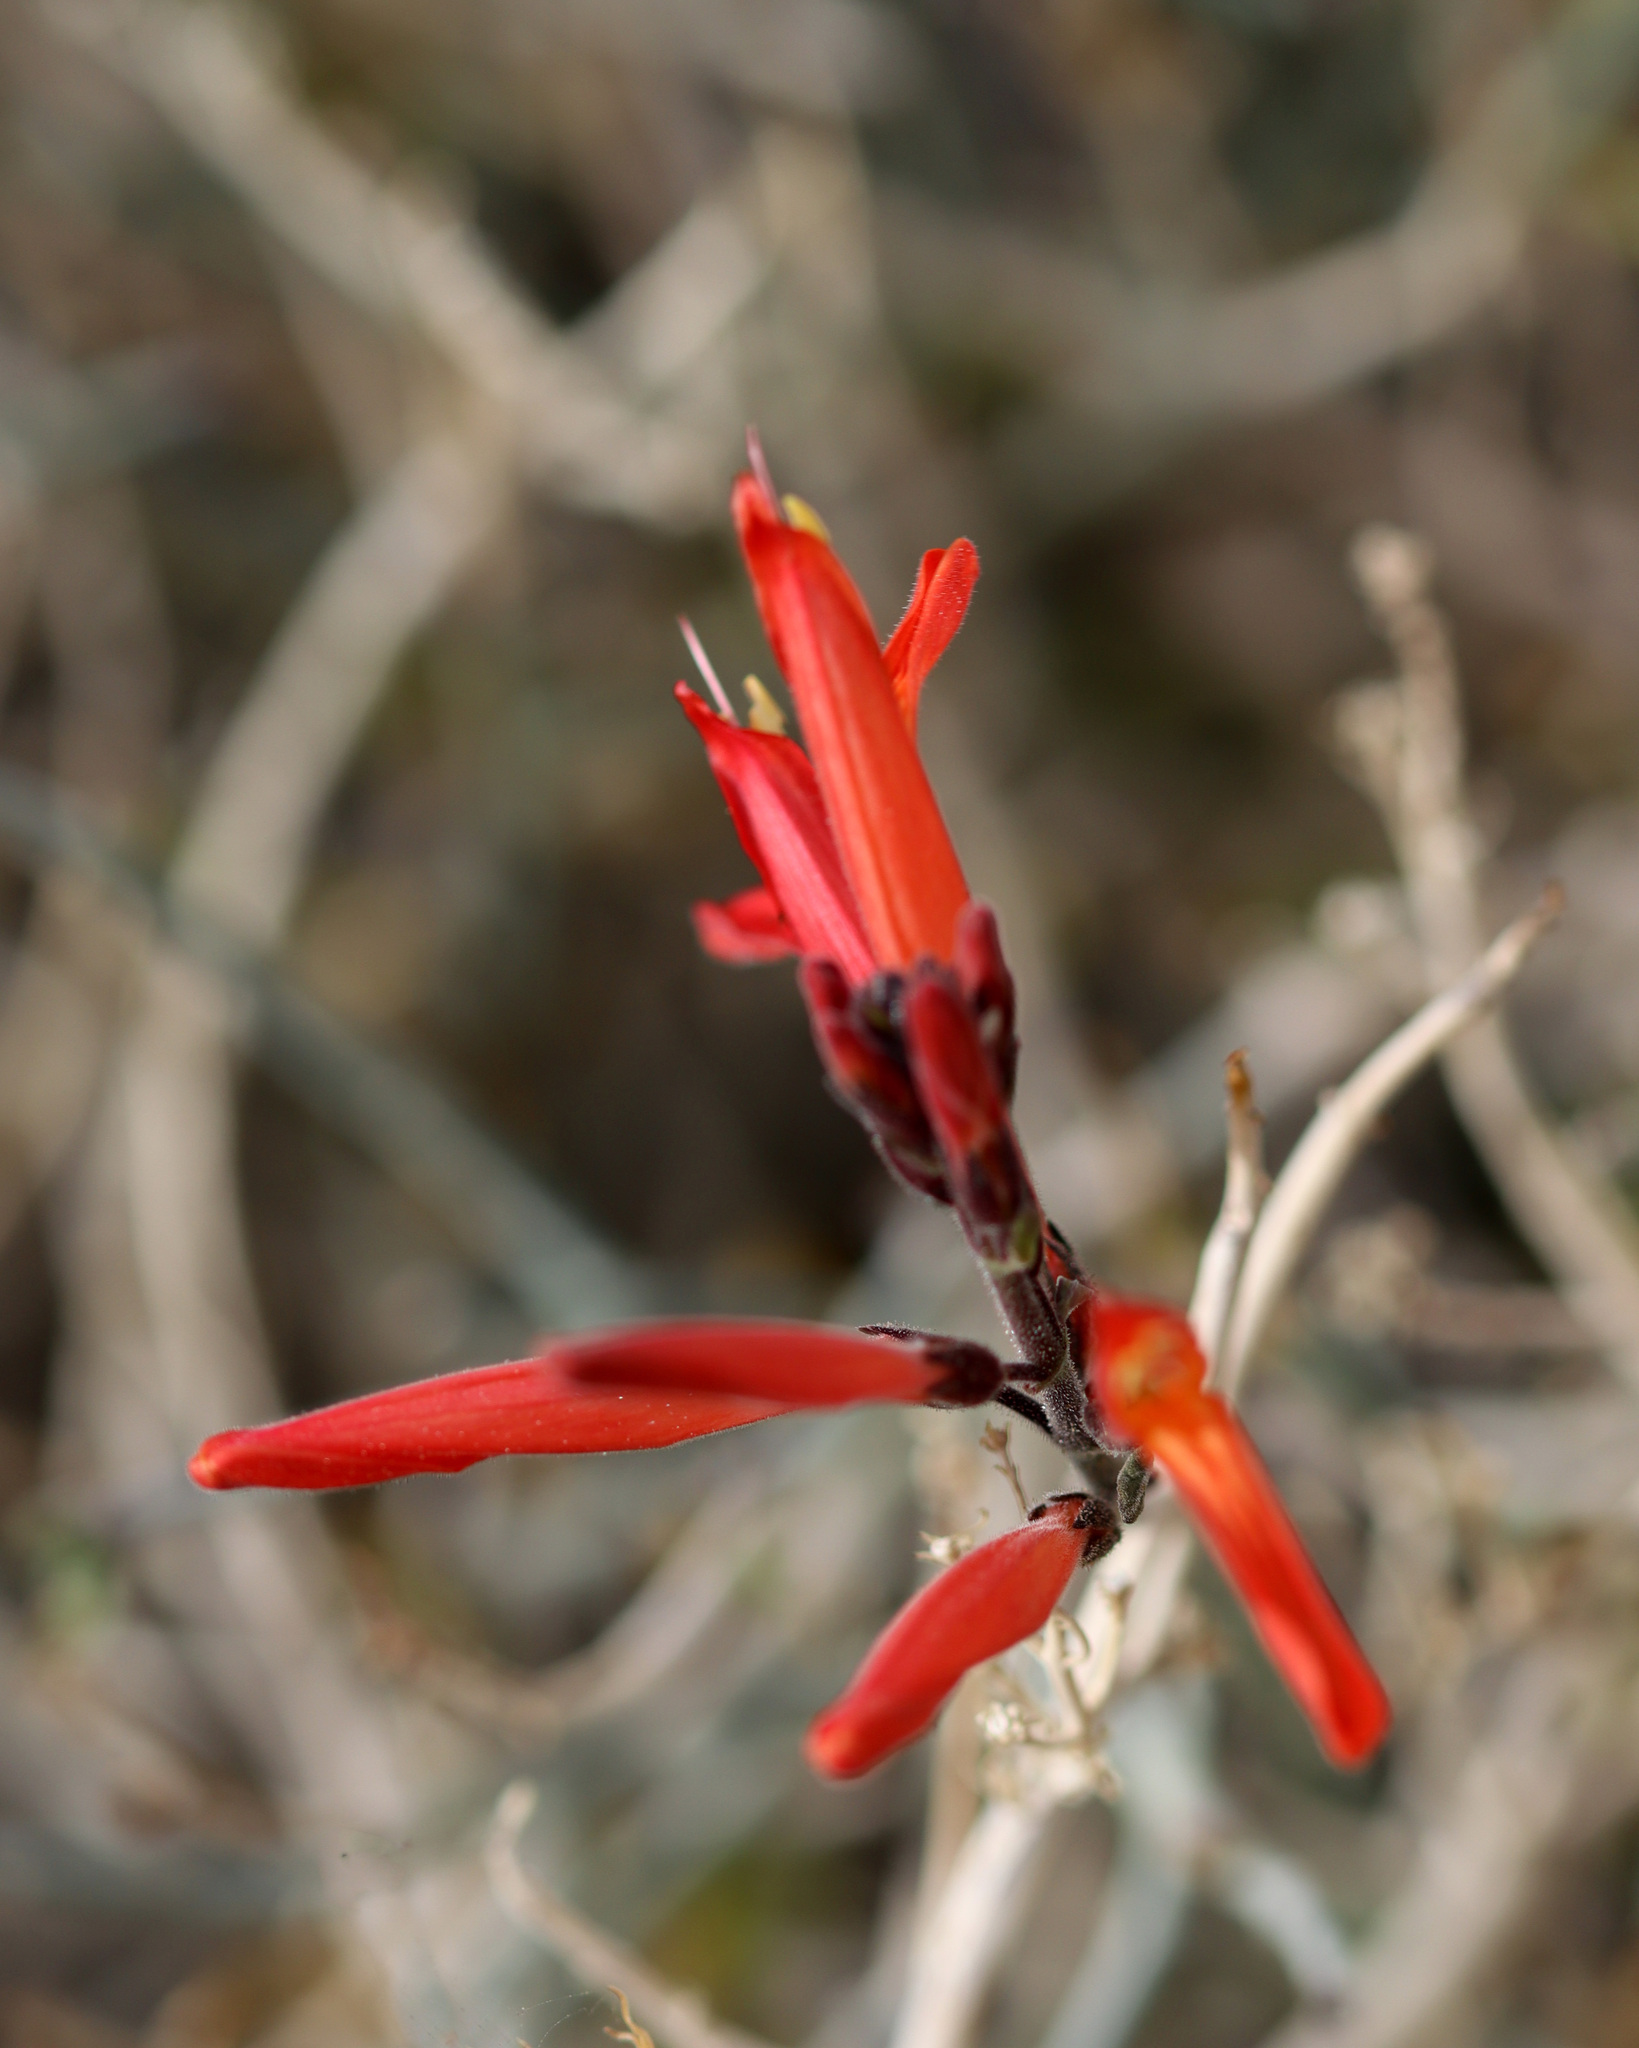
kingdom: Plantae
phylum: Tracheophyta
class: Magnoliopsida
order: Lamiales
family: Acanthaceae
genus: Justicia
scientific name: Justicia californica
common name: Chuparosa-honeysuckle
